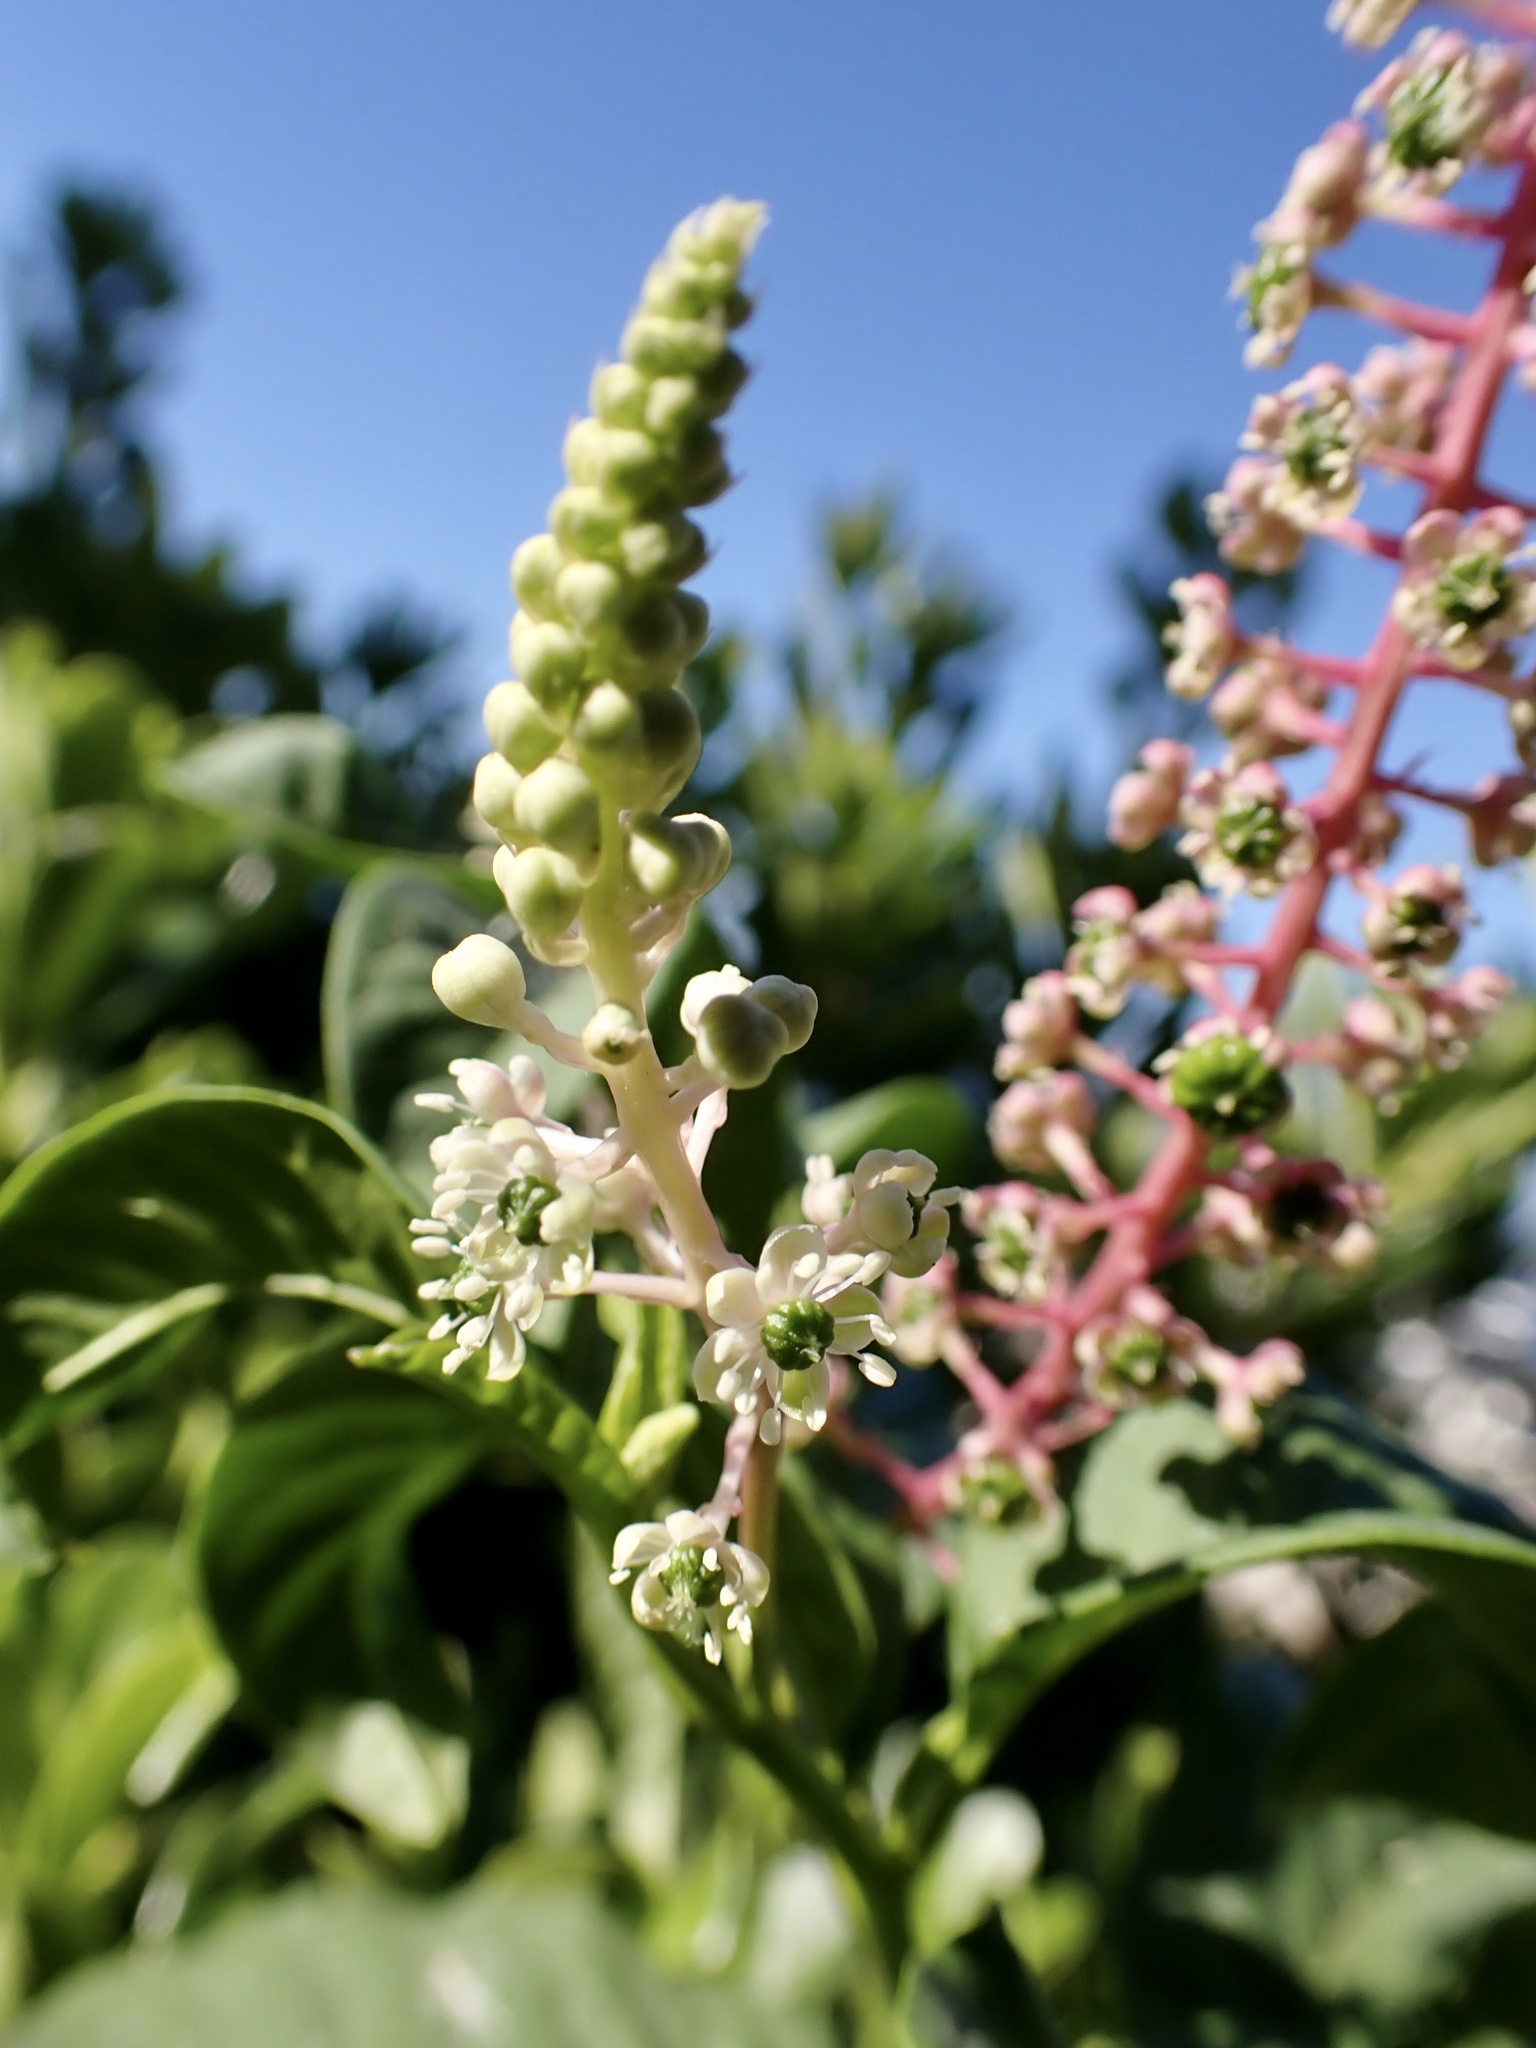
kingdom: Plantae
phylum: Tracheophyta
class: Magnoliopsida
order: Caryophyllales
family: Phytolaccaceae
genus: Phytolacca
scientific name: Phytolacca americana
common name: American pokeweed
